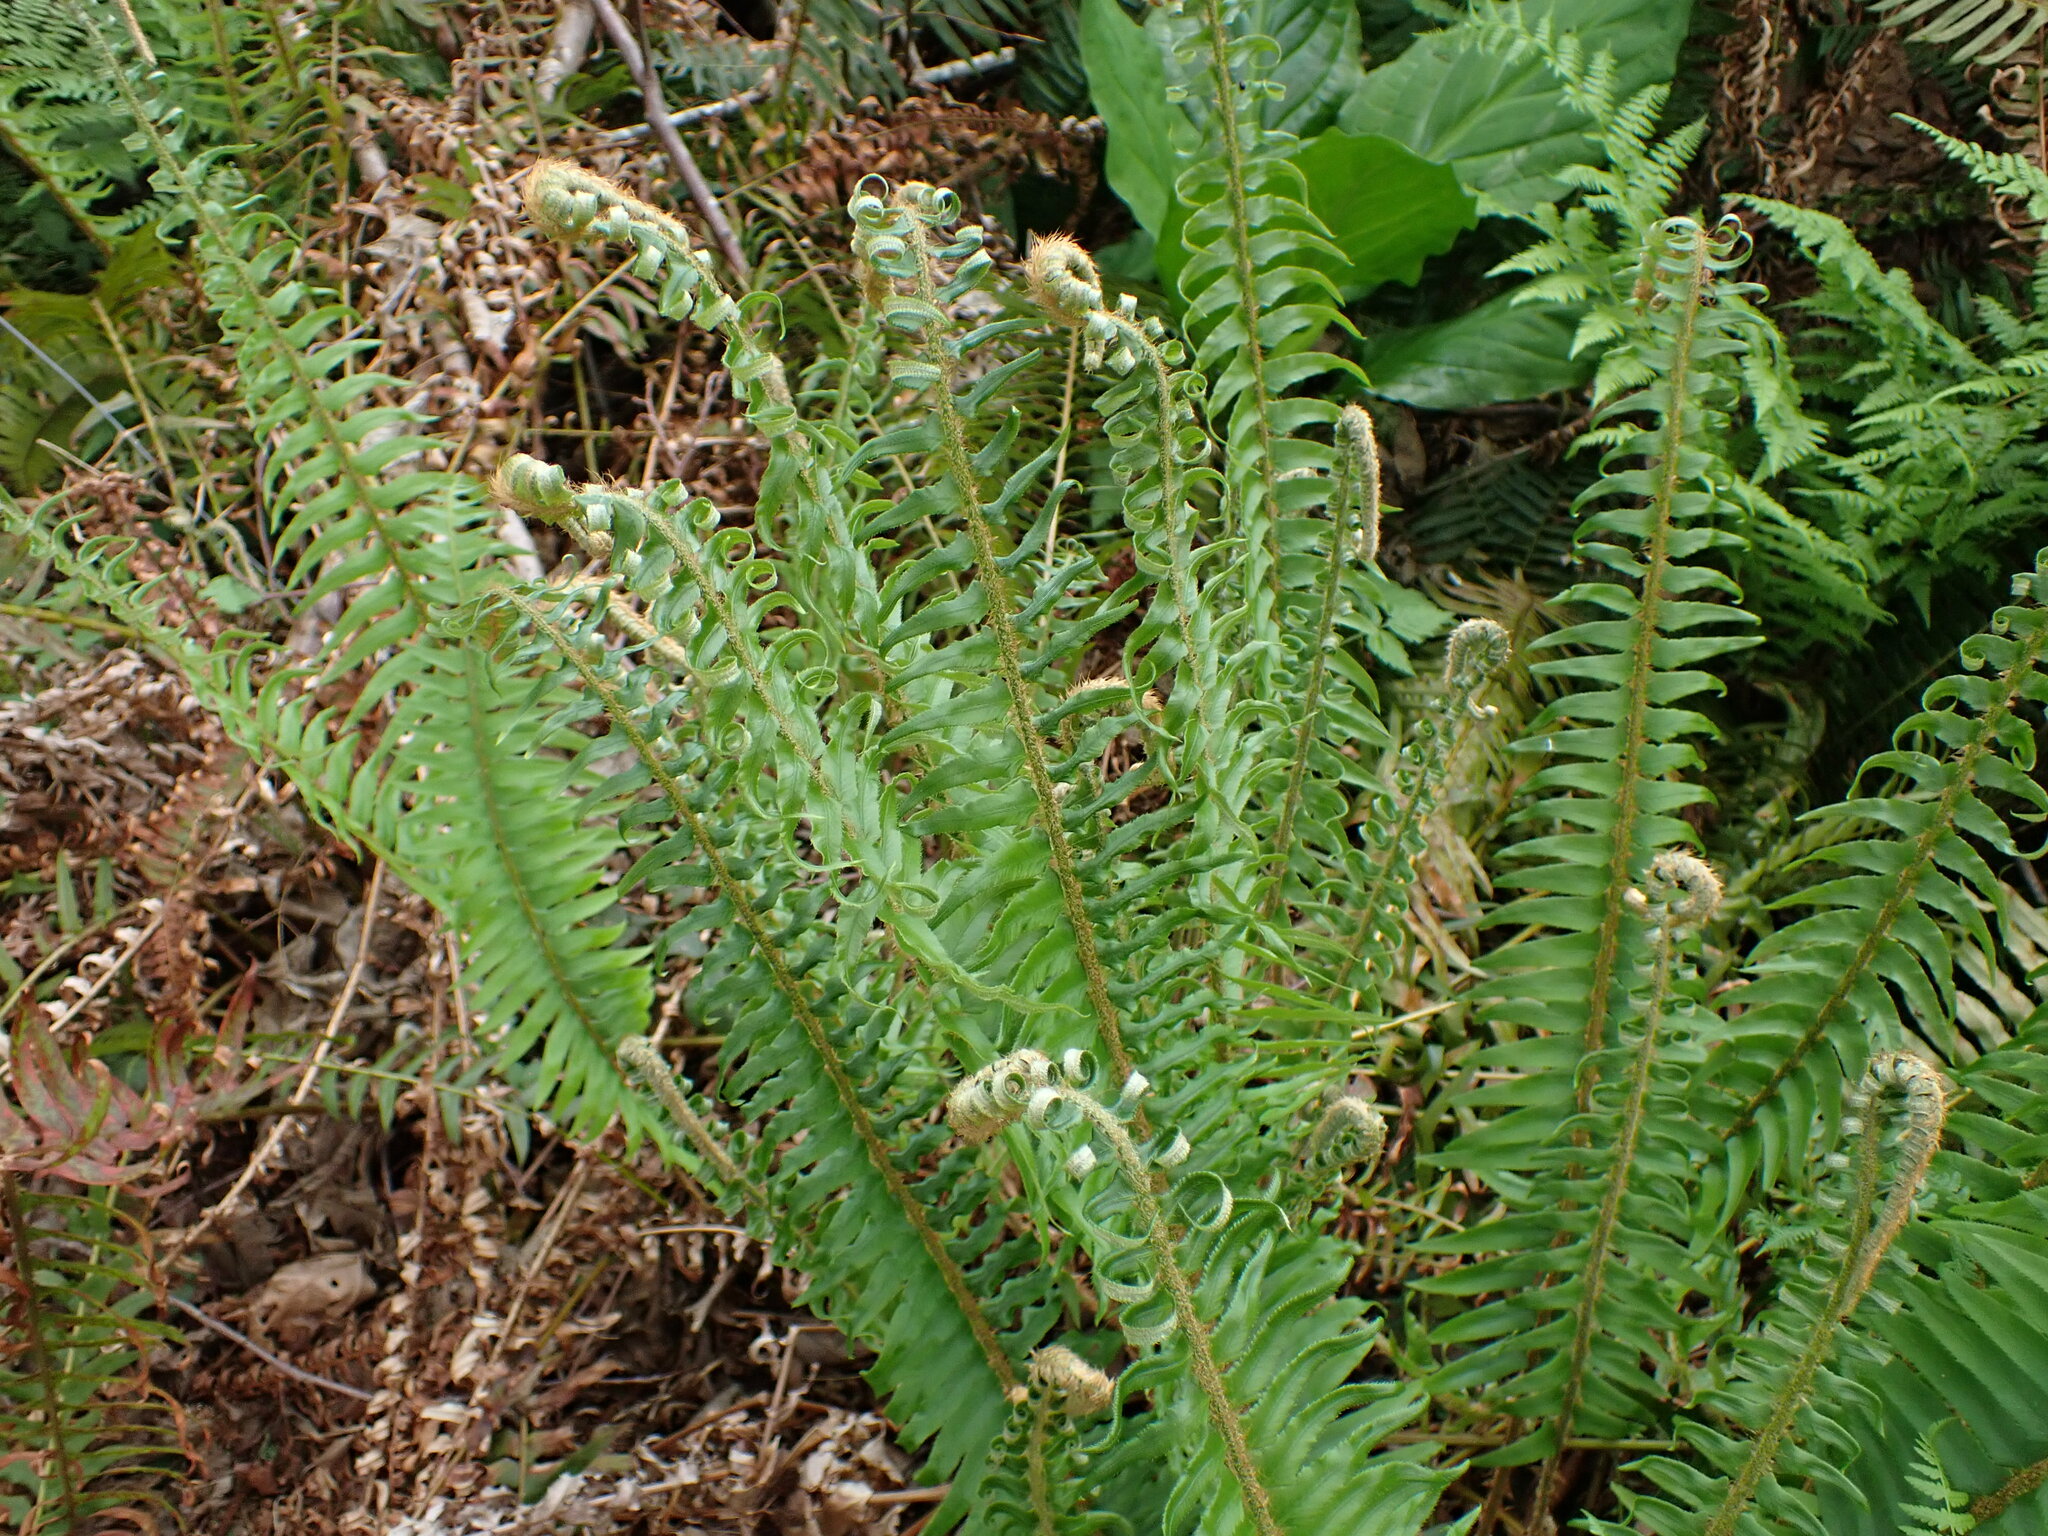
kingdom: Plantae
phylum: Tracheophyta
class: Polypodiopsida
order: Polypodiales
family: Dryopteridaceae
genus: Polystichum
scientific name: Polystichum munitum
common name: Western sword-fern
